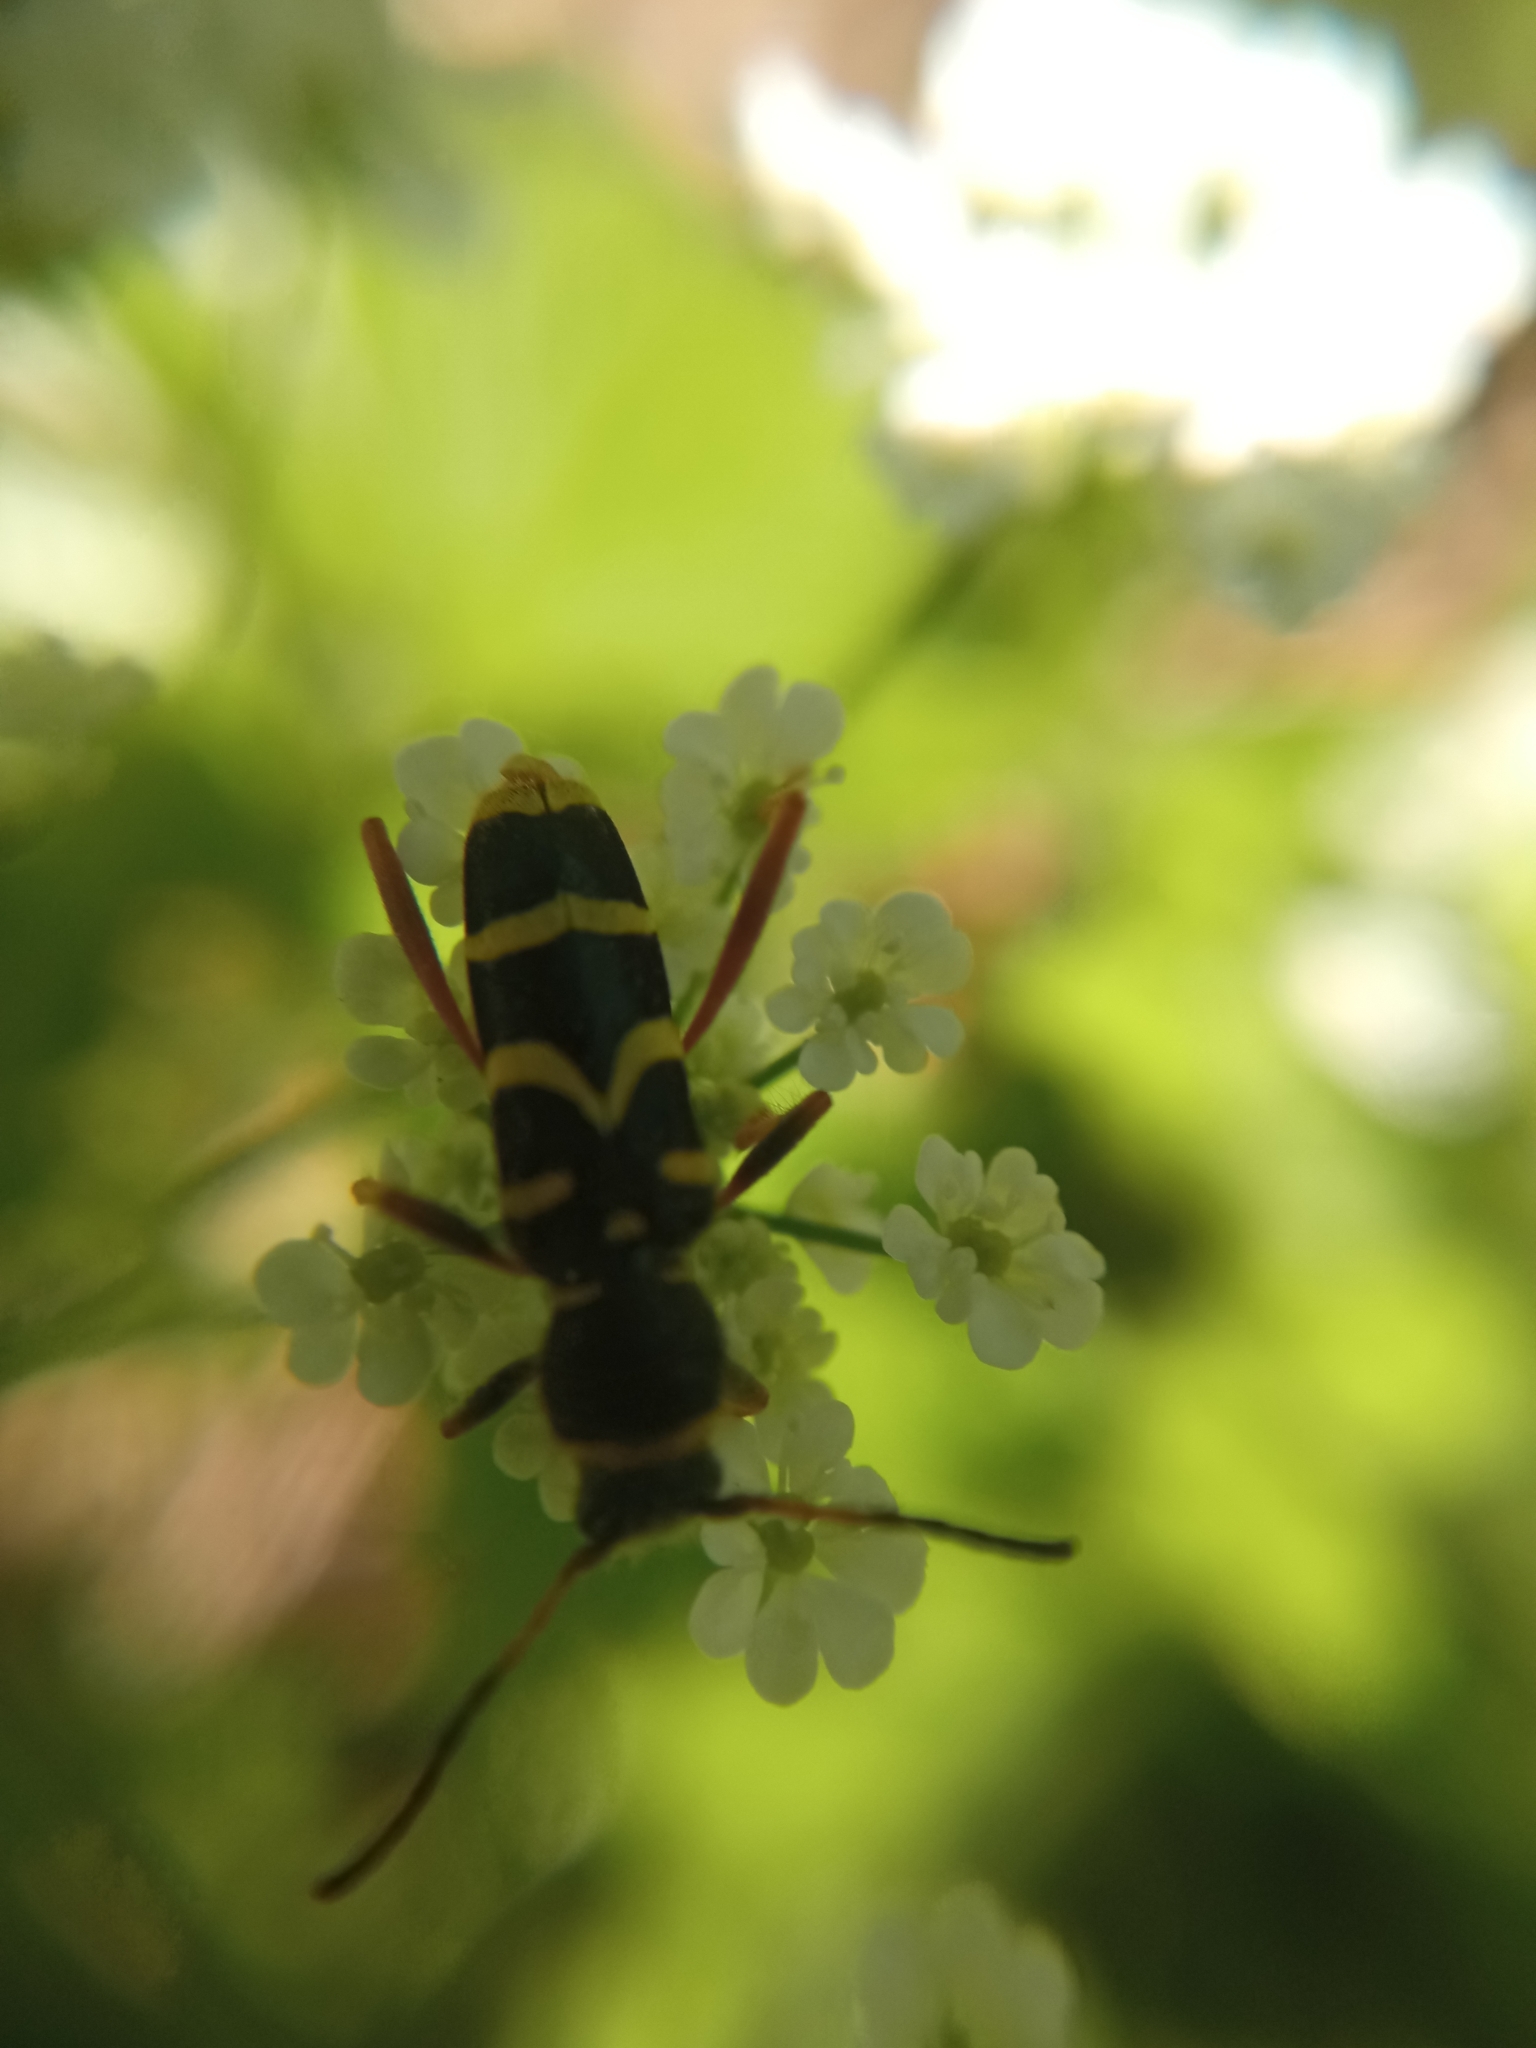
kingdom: Animalia
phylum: Arthropoda
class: Insecta
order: Coleoptera
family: Cerambycidae
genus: Clytus
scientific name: Clytus arietis
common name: Wasp beetle
